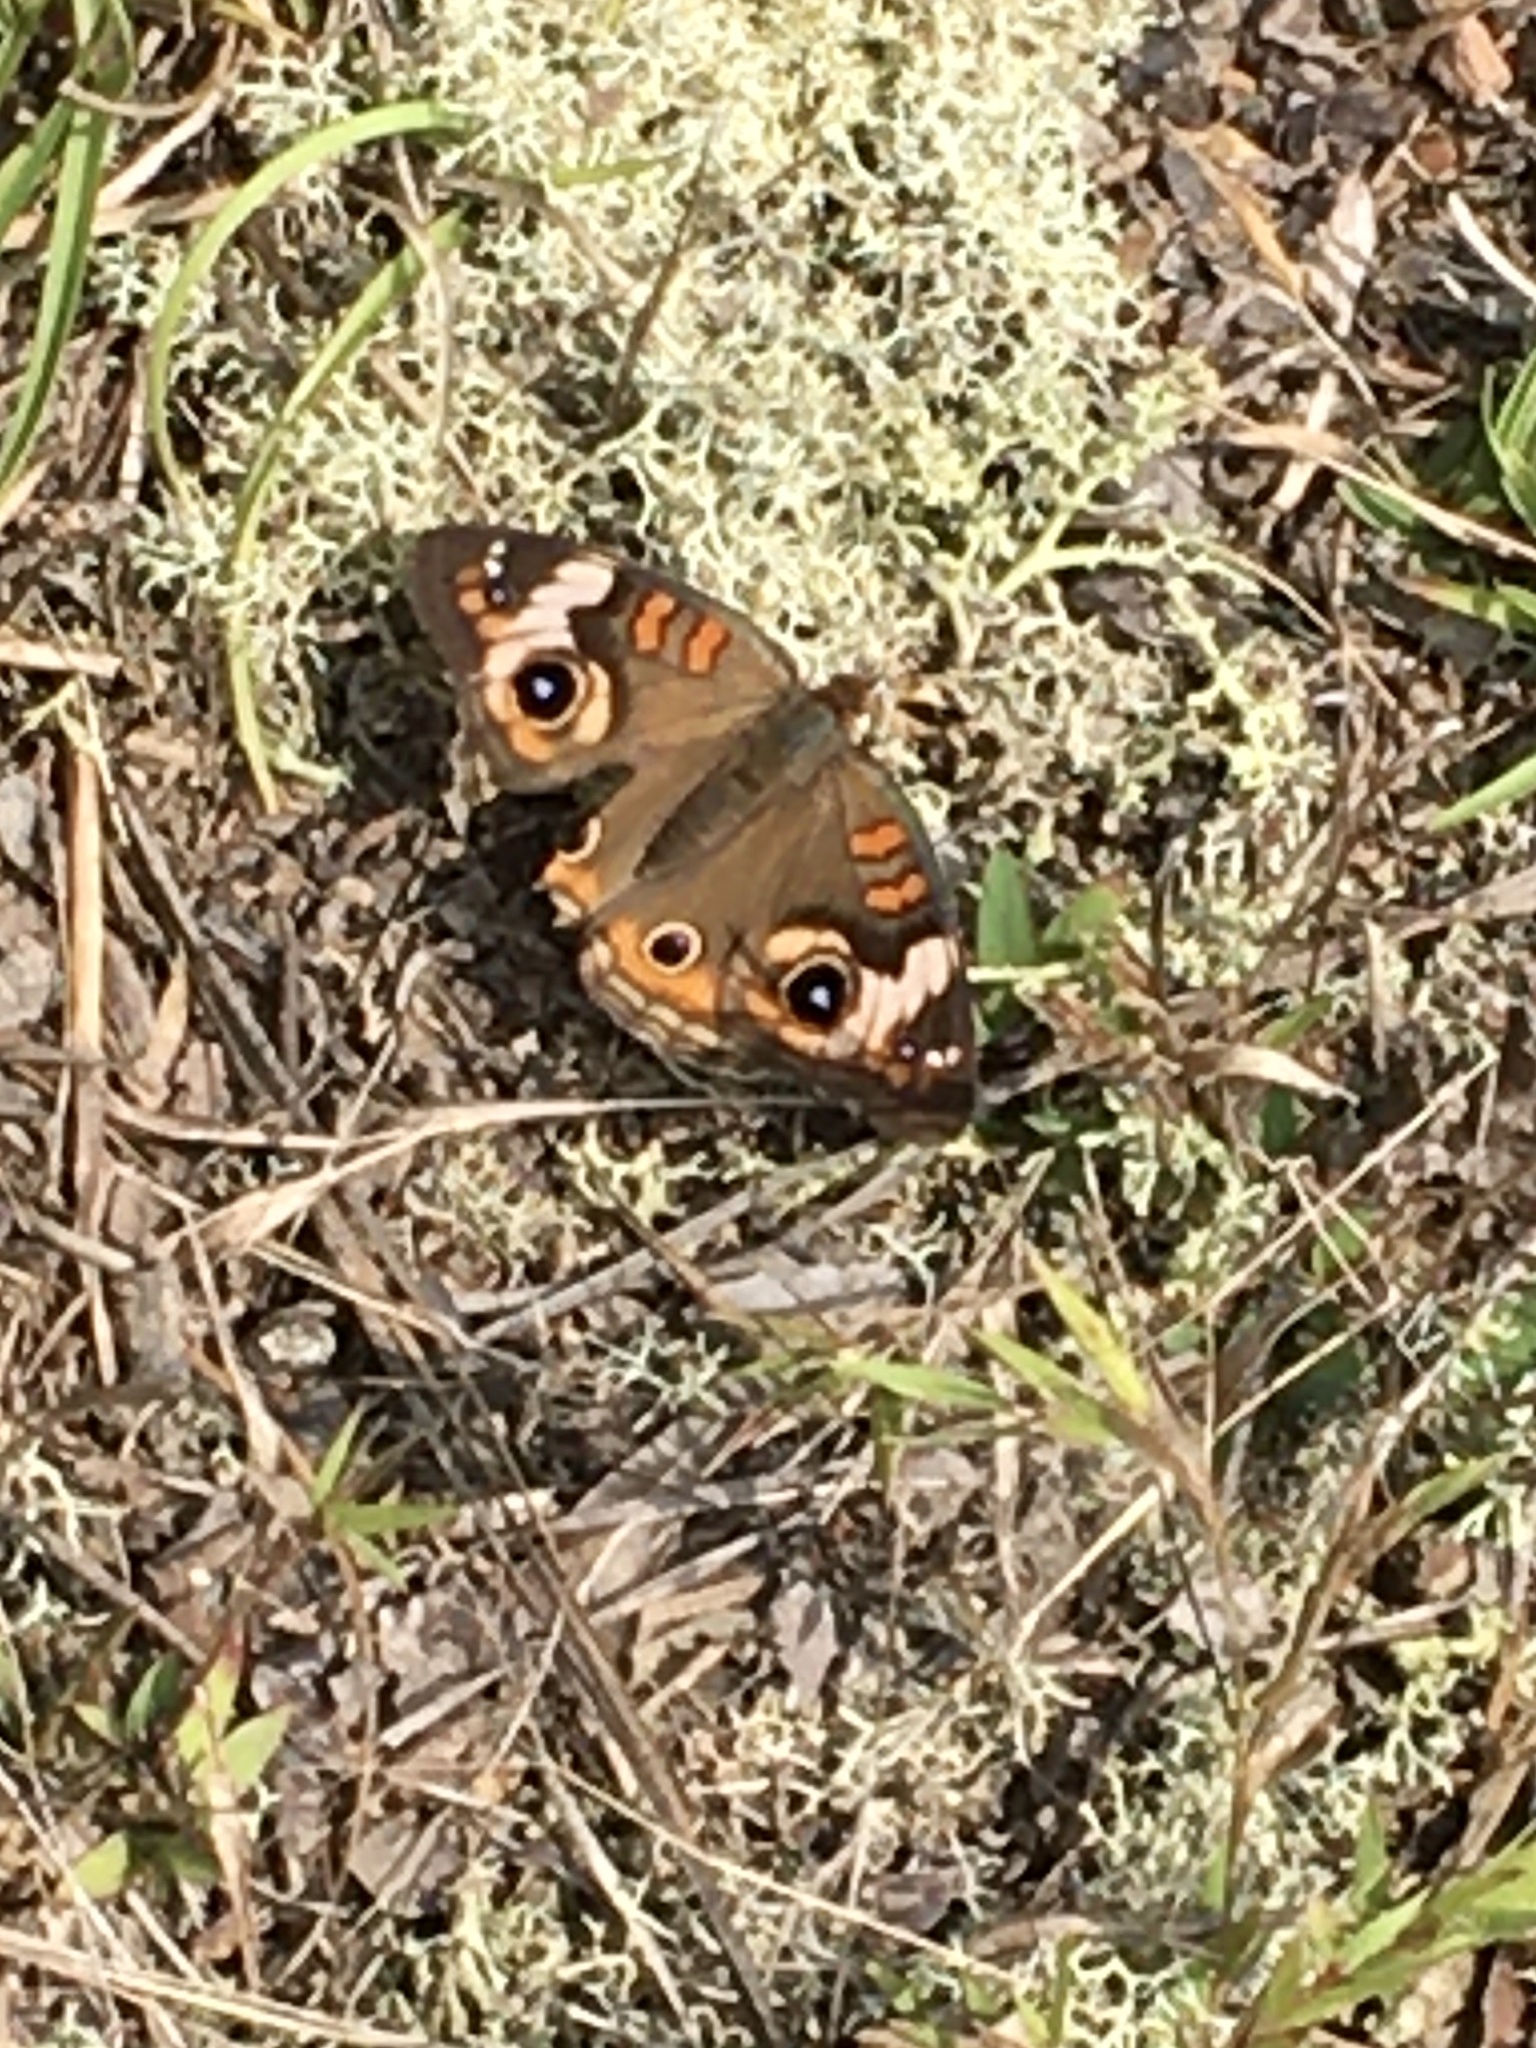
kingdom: Animalia
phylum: Arthropoda
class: Insecta
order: Lepidoptera
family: Nymphalidae
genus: Junonia
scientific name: Junonia coenia
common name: Common buckeye
